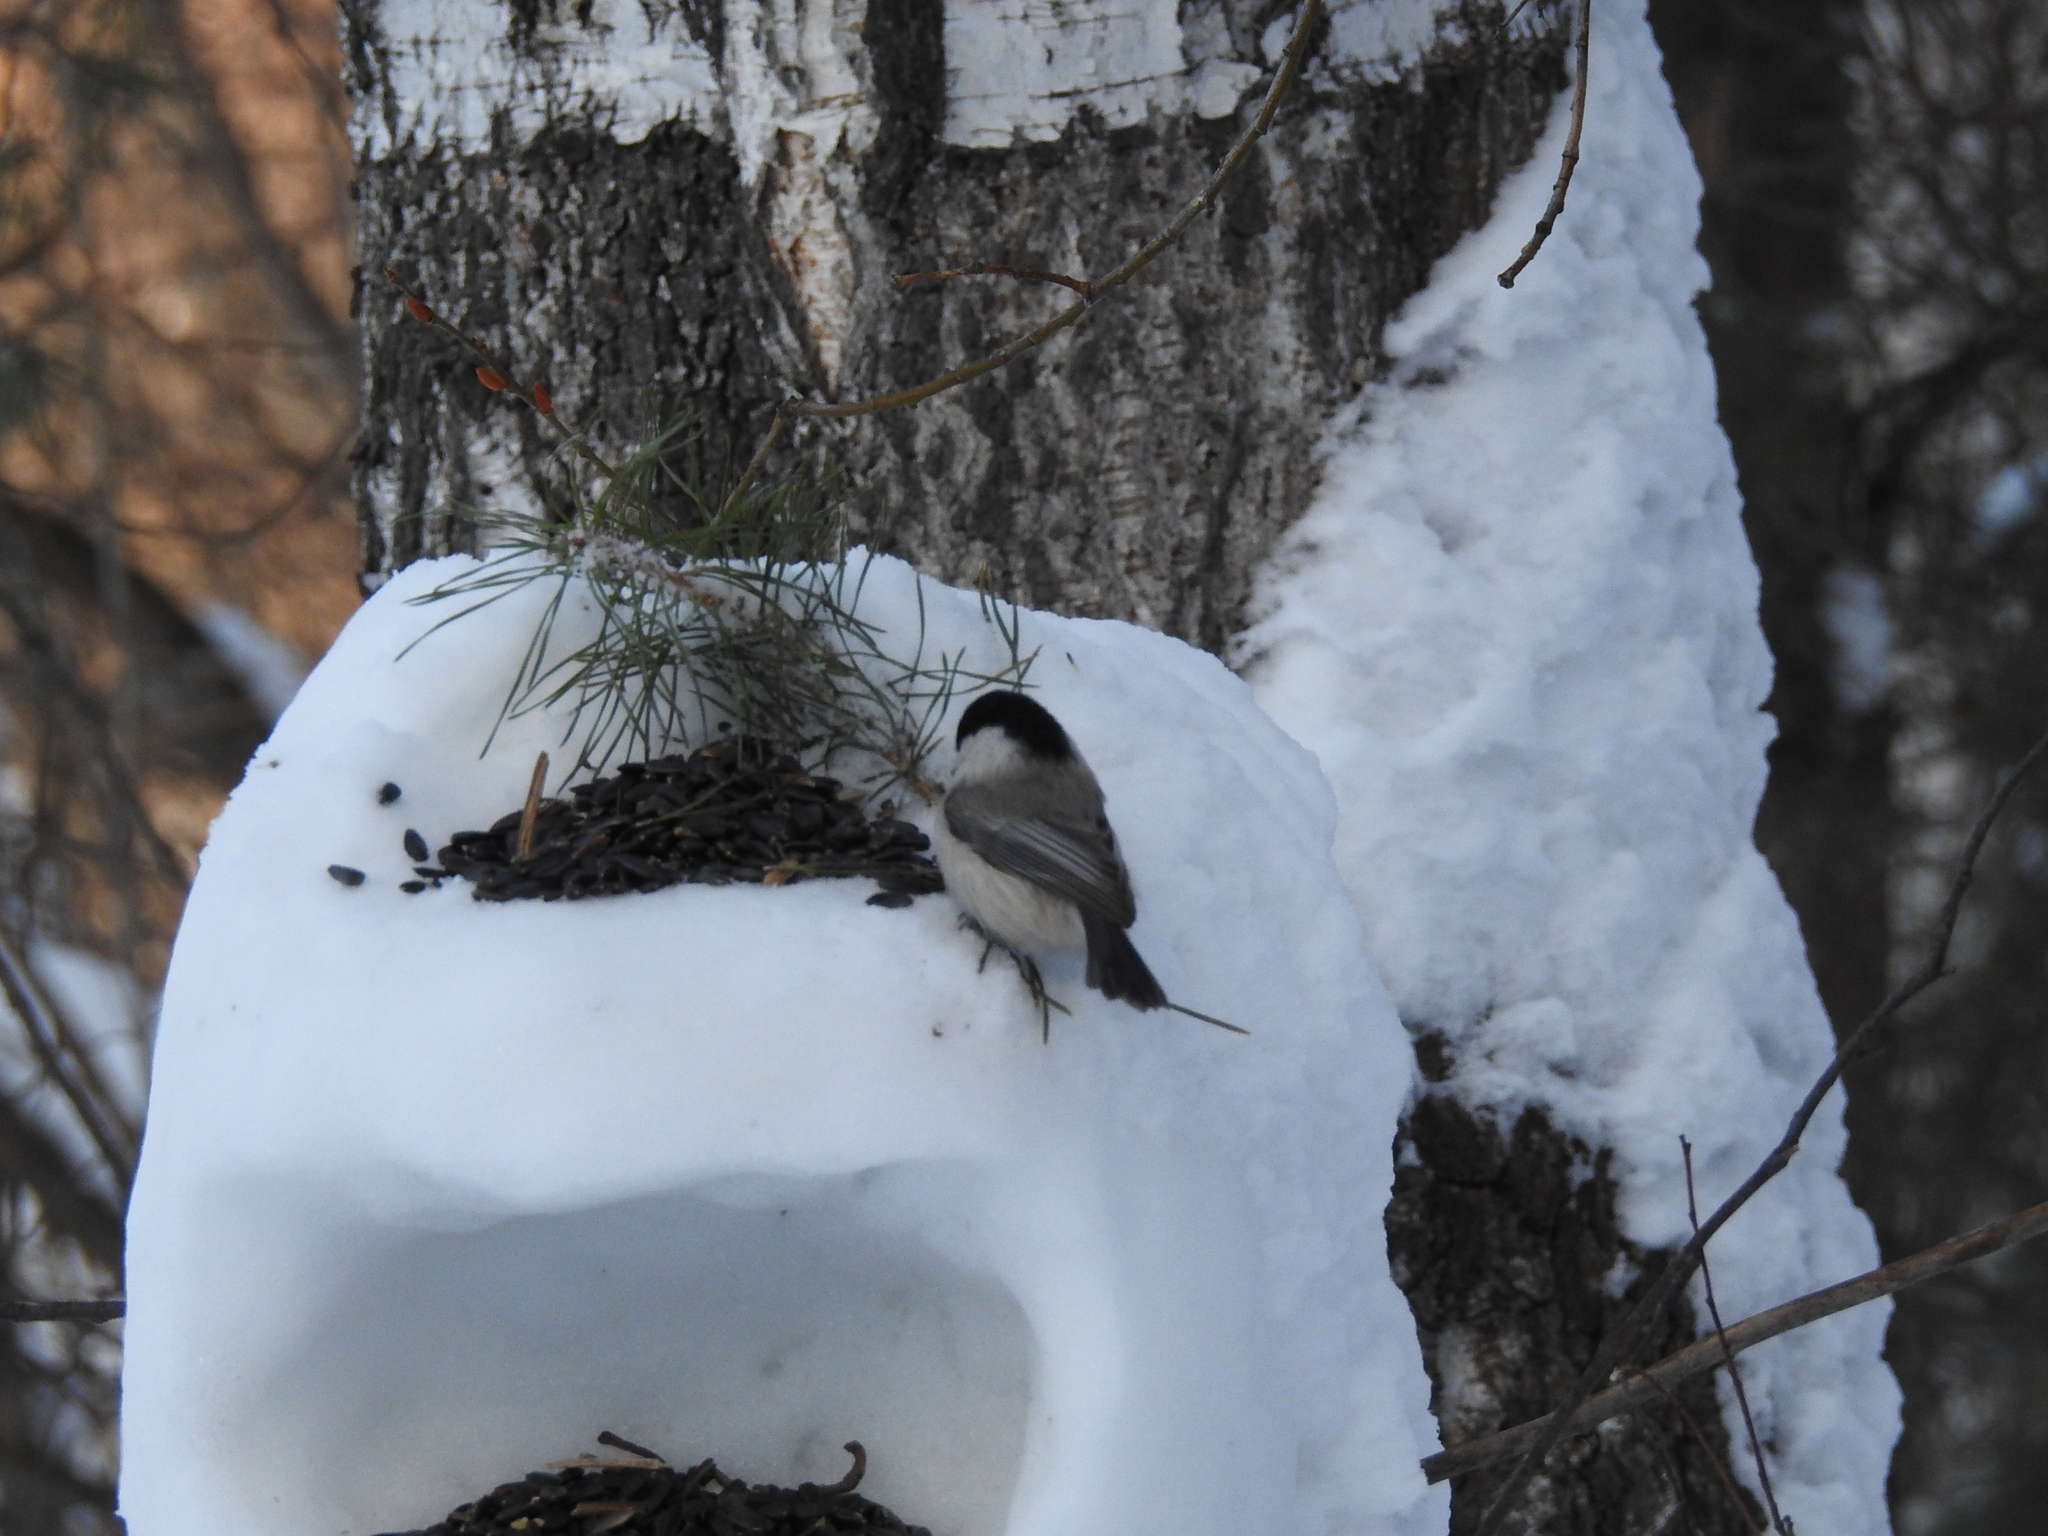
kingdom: Animalia
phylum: Chordata
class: Aves
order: Passeriformes
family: Paridae
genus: Poecile
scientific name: Poecile montanus
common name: Willow tit
